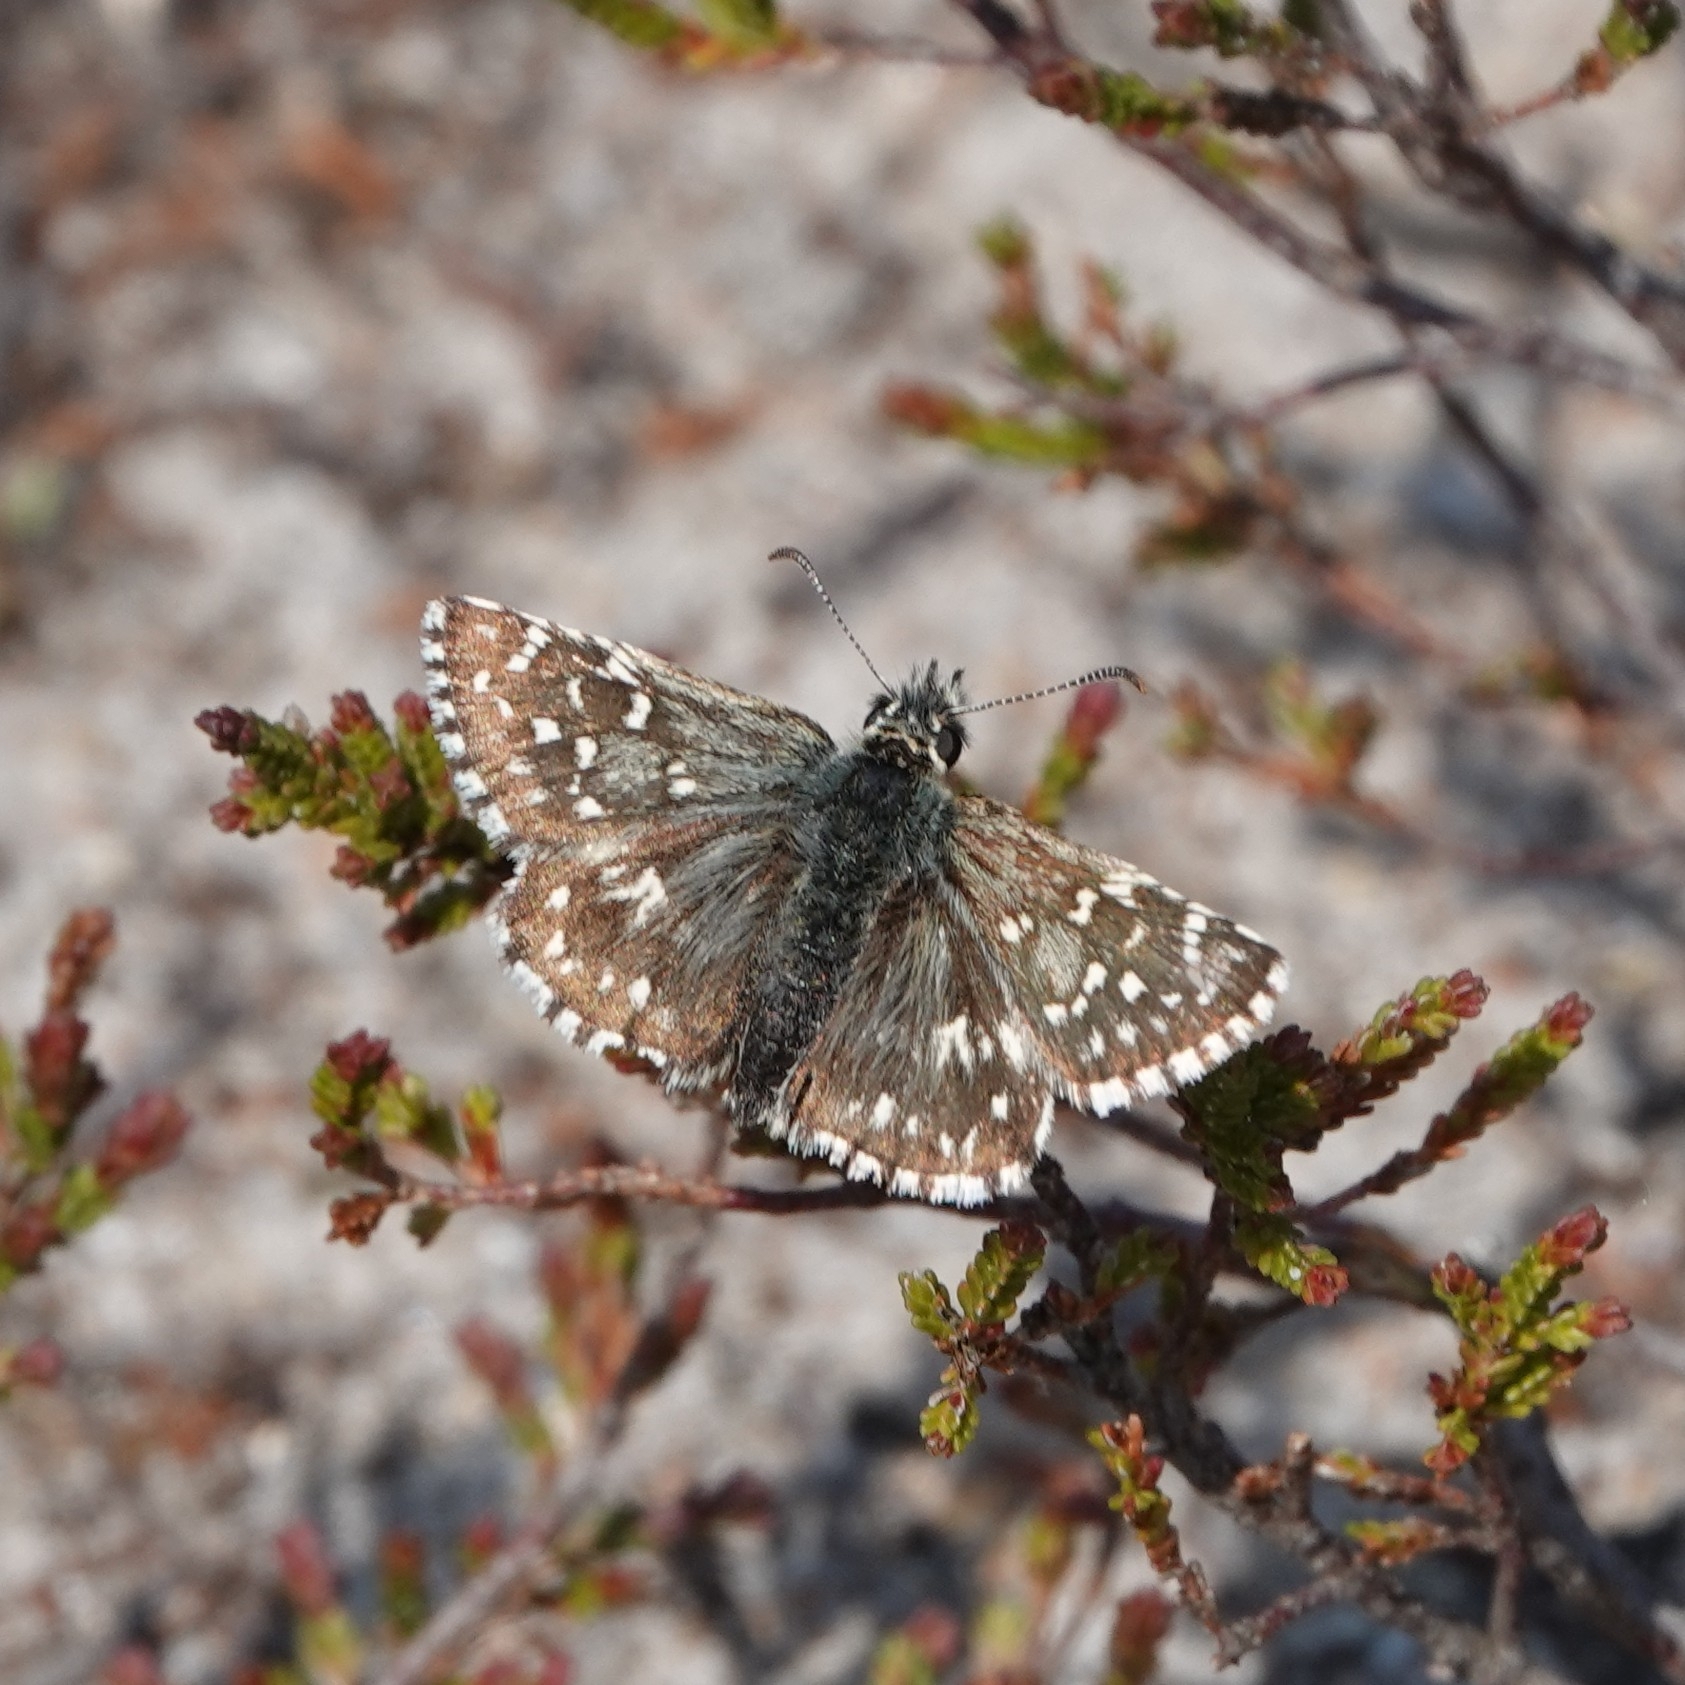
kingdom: Animalia
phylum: Arthropoda
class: Insecta
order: Lepidoptera
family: Hesperiidae
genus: Pyrgus
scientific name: Pyrgus malvae
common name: Grizzled skipper
